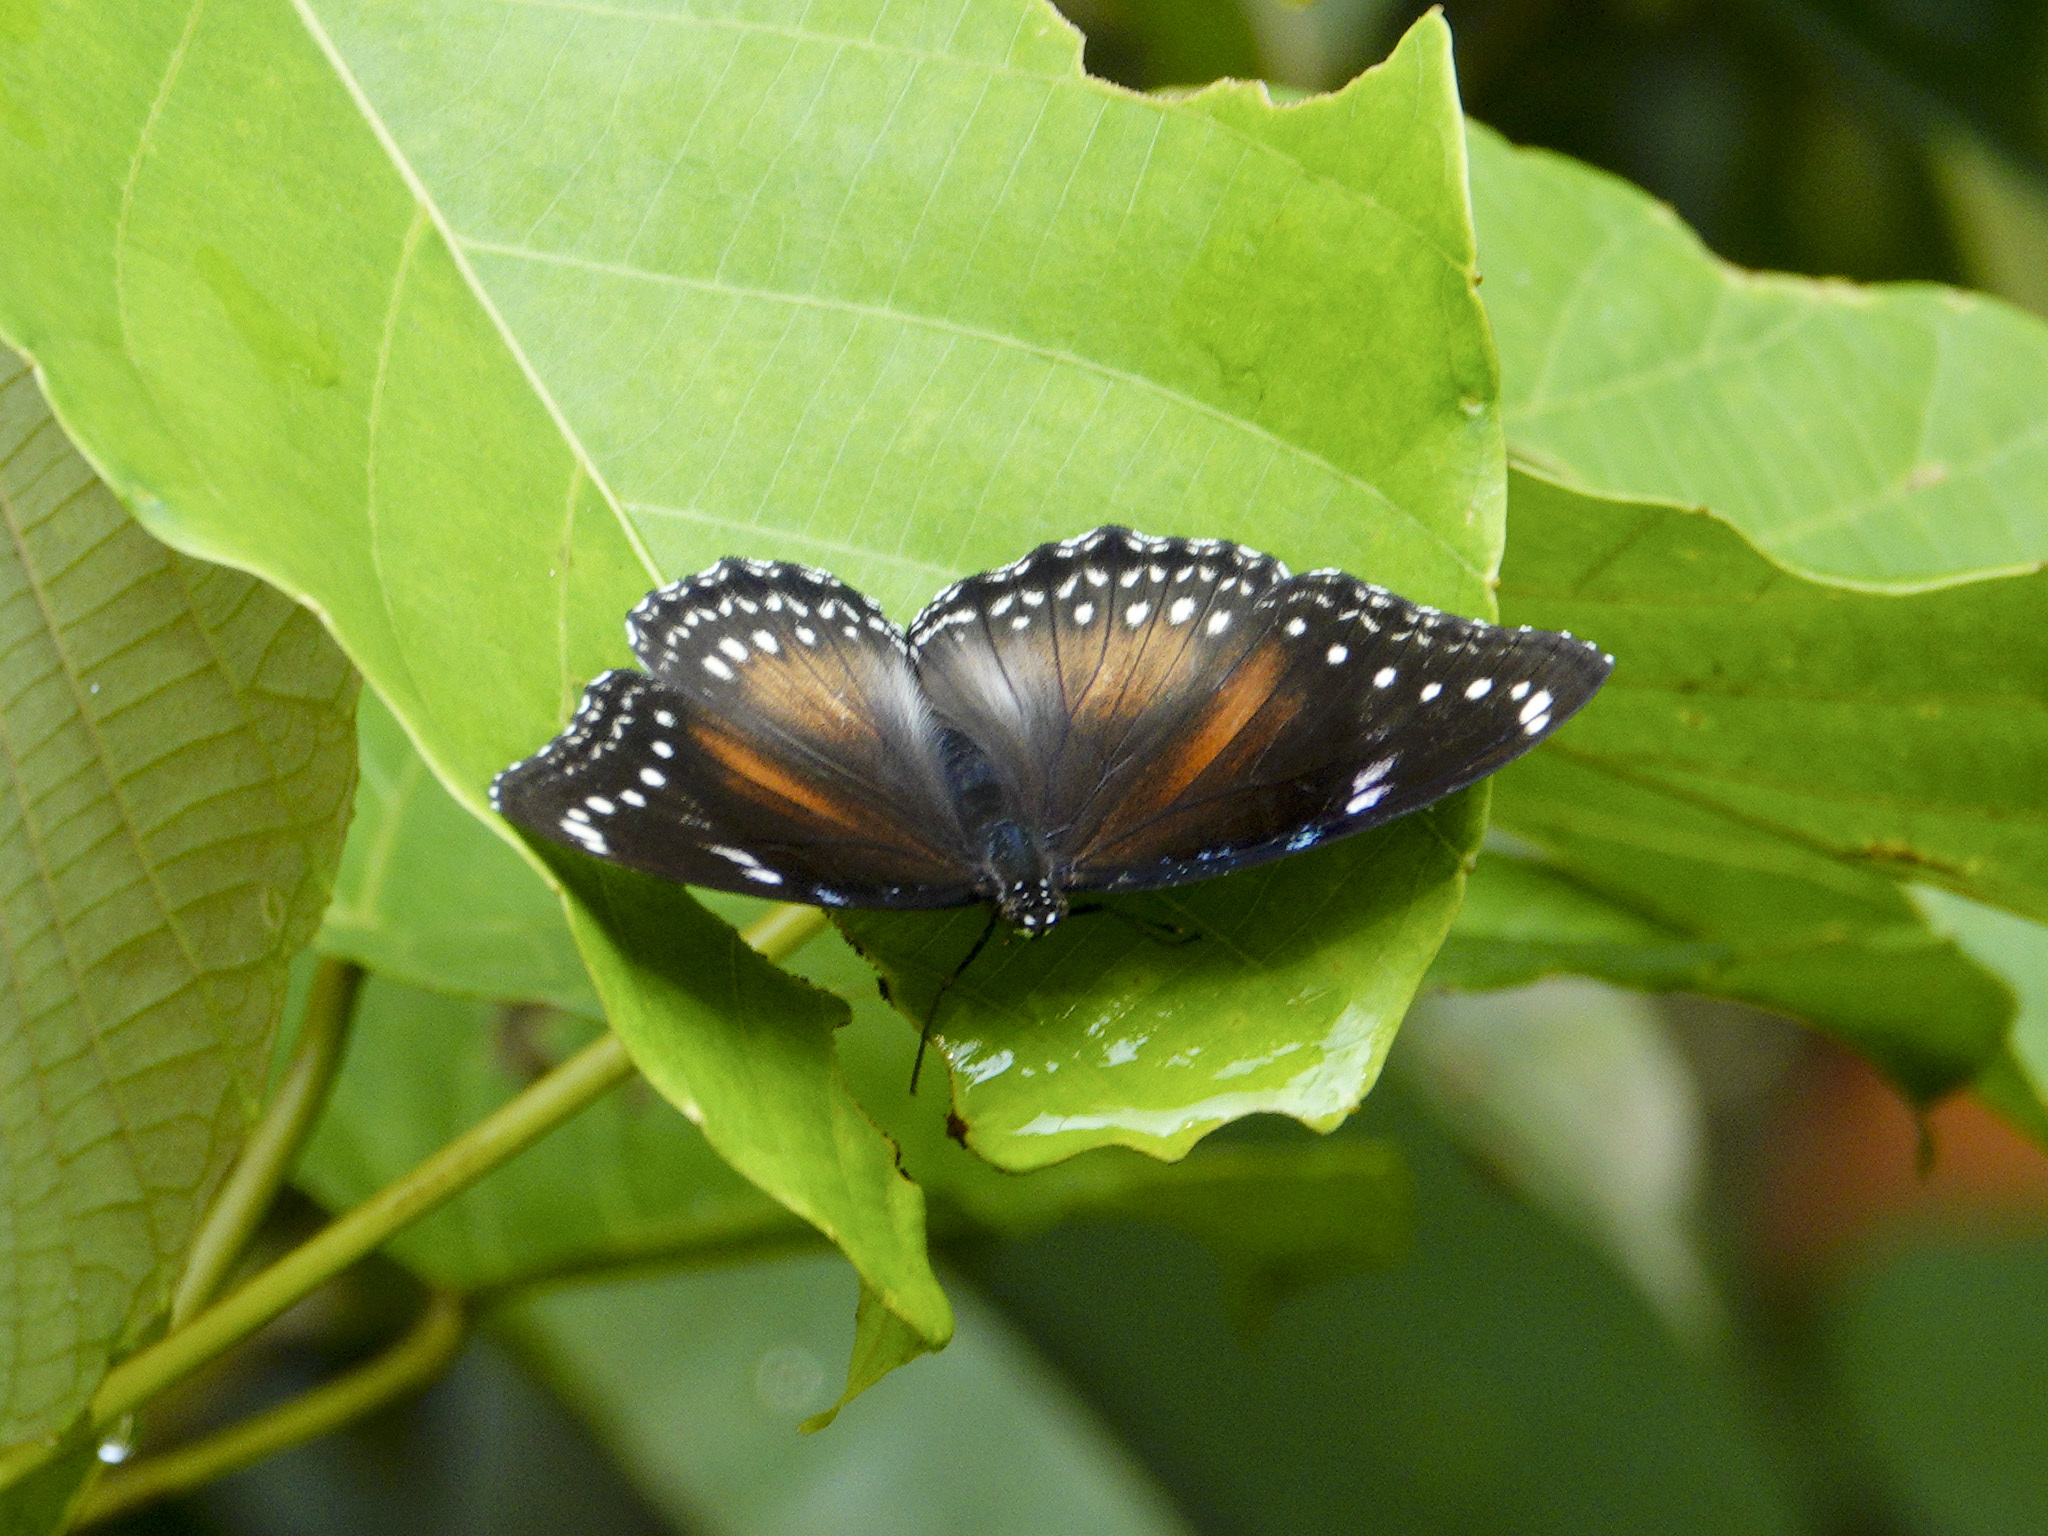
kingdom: Animalia
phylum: Arthropoda
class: Insecta
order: Lepidoptera
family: Nymphalidae
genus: Hypolimnas
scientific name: Hypolimnas bolina
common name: Great eggfly
